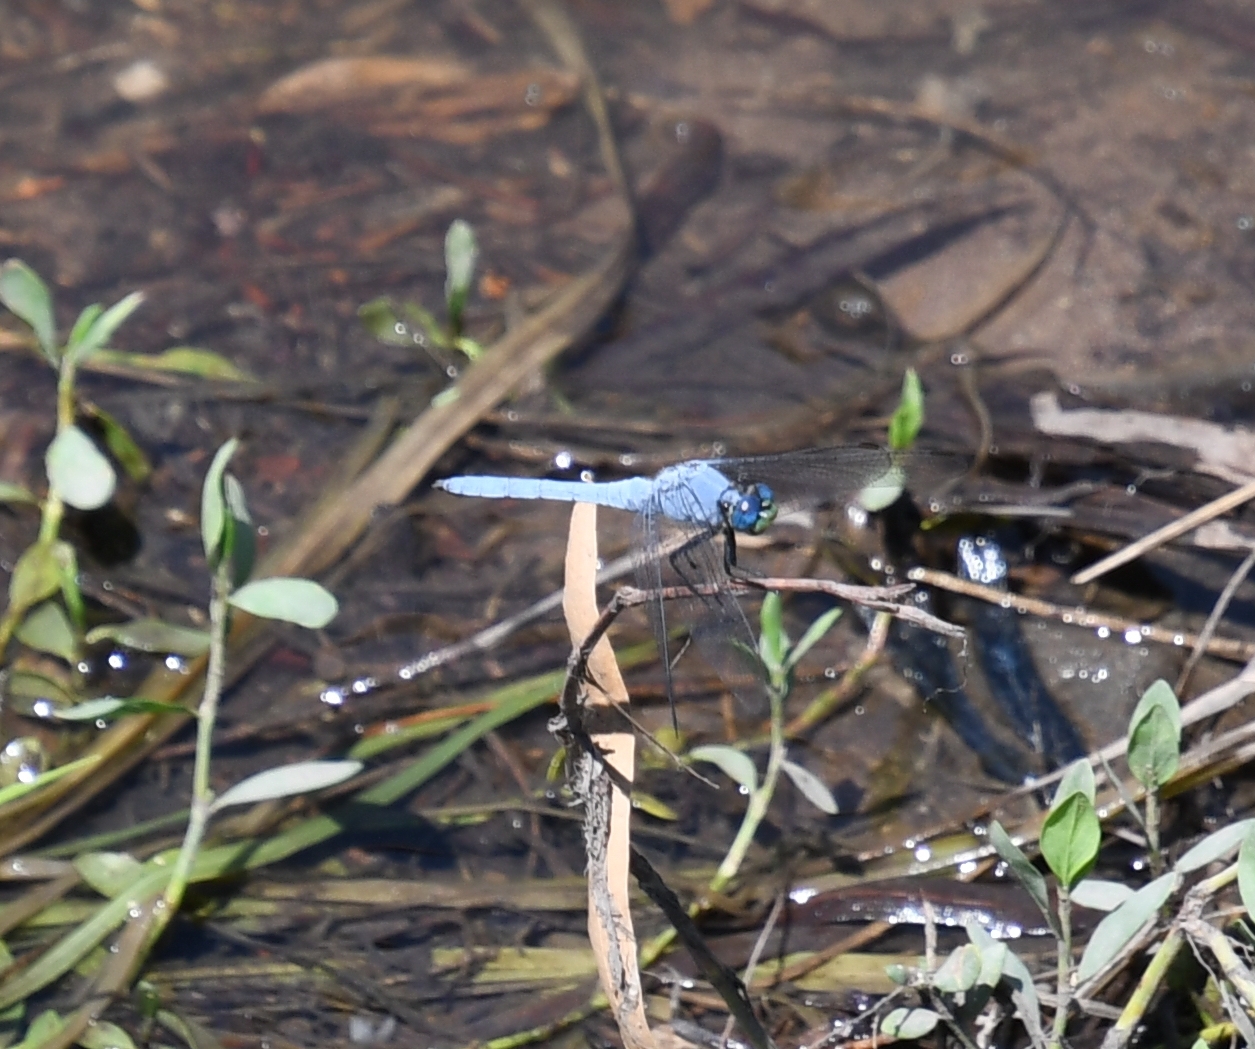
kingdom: Animalia
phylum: Arthropoda
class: Insecta
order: Odonata
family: Libellulidae
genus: Erythemis
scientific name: Erythemis collocata
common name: Western pondhawk
